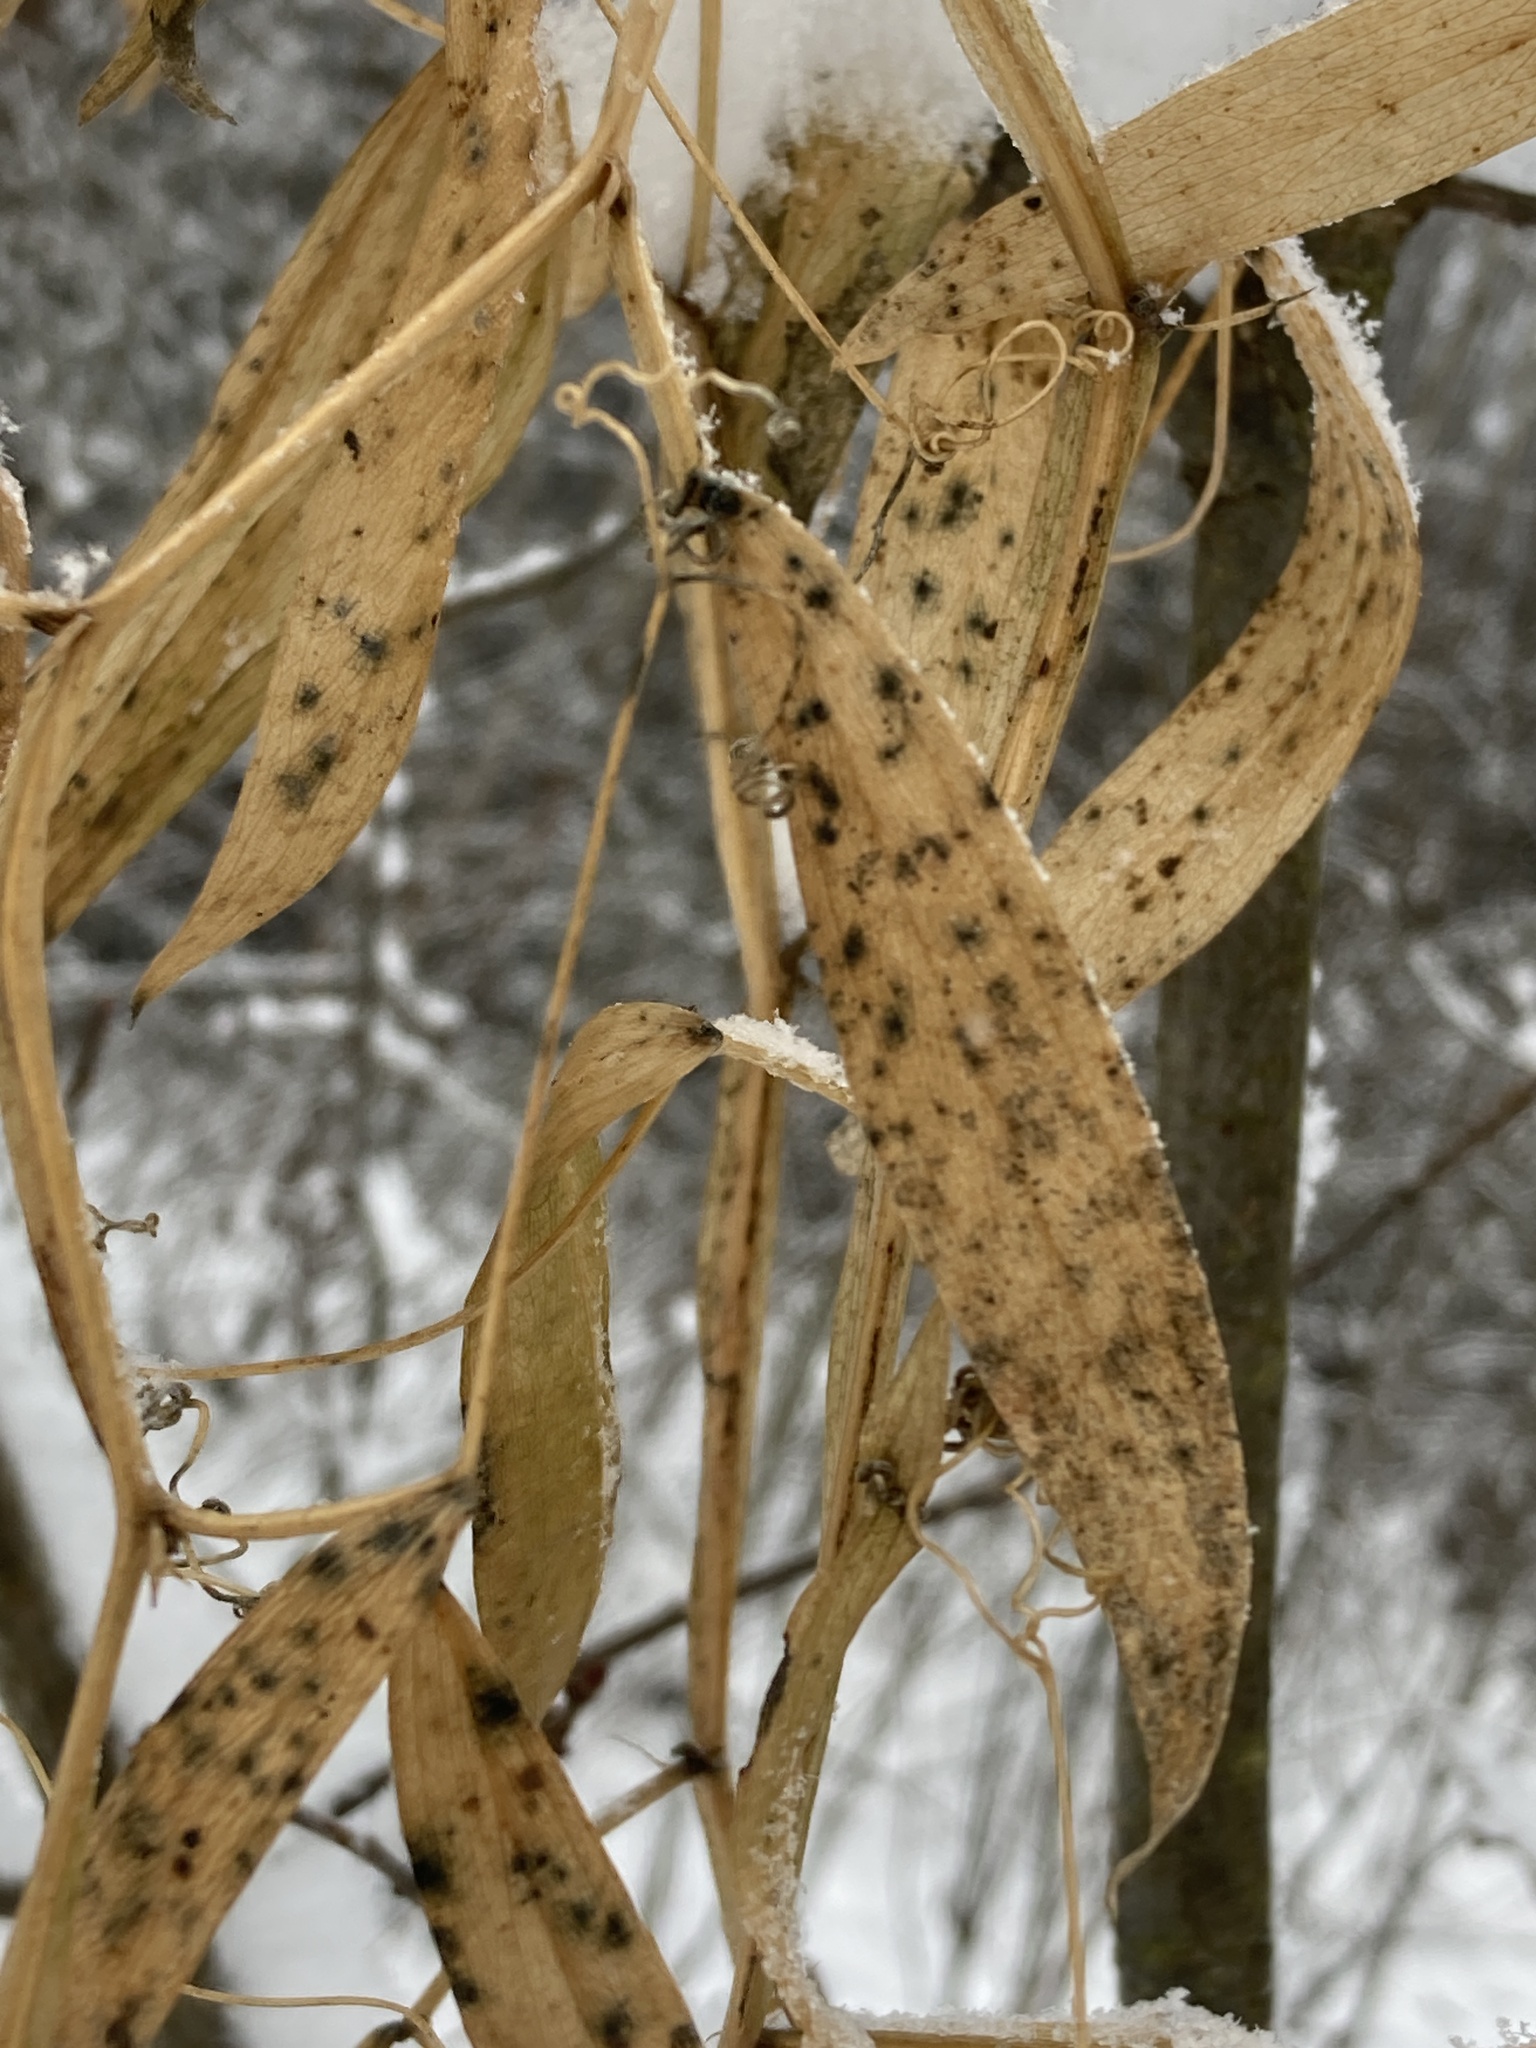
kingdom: Plantae
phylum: Tracheophyta
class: Magnoliopsida
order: Fabales
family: Fabaceae
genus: Lathyrus
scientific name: Lathyrus sylvestris
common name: Flat pea
